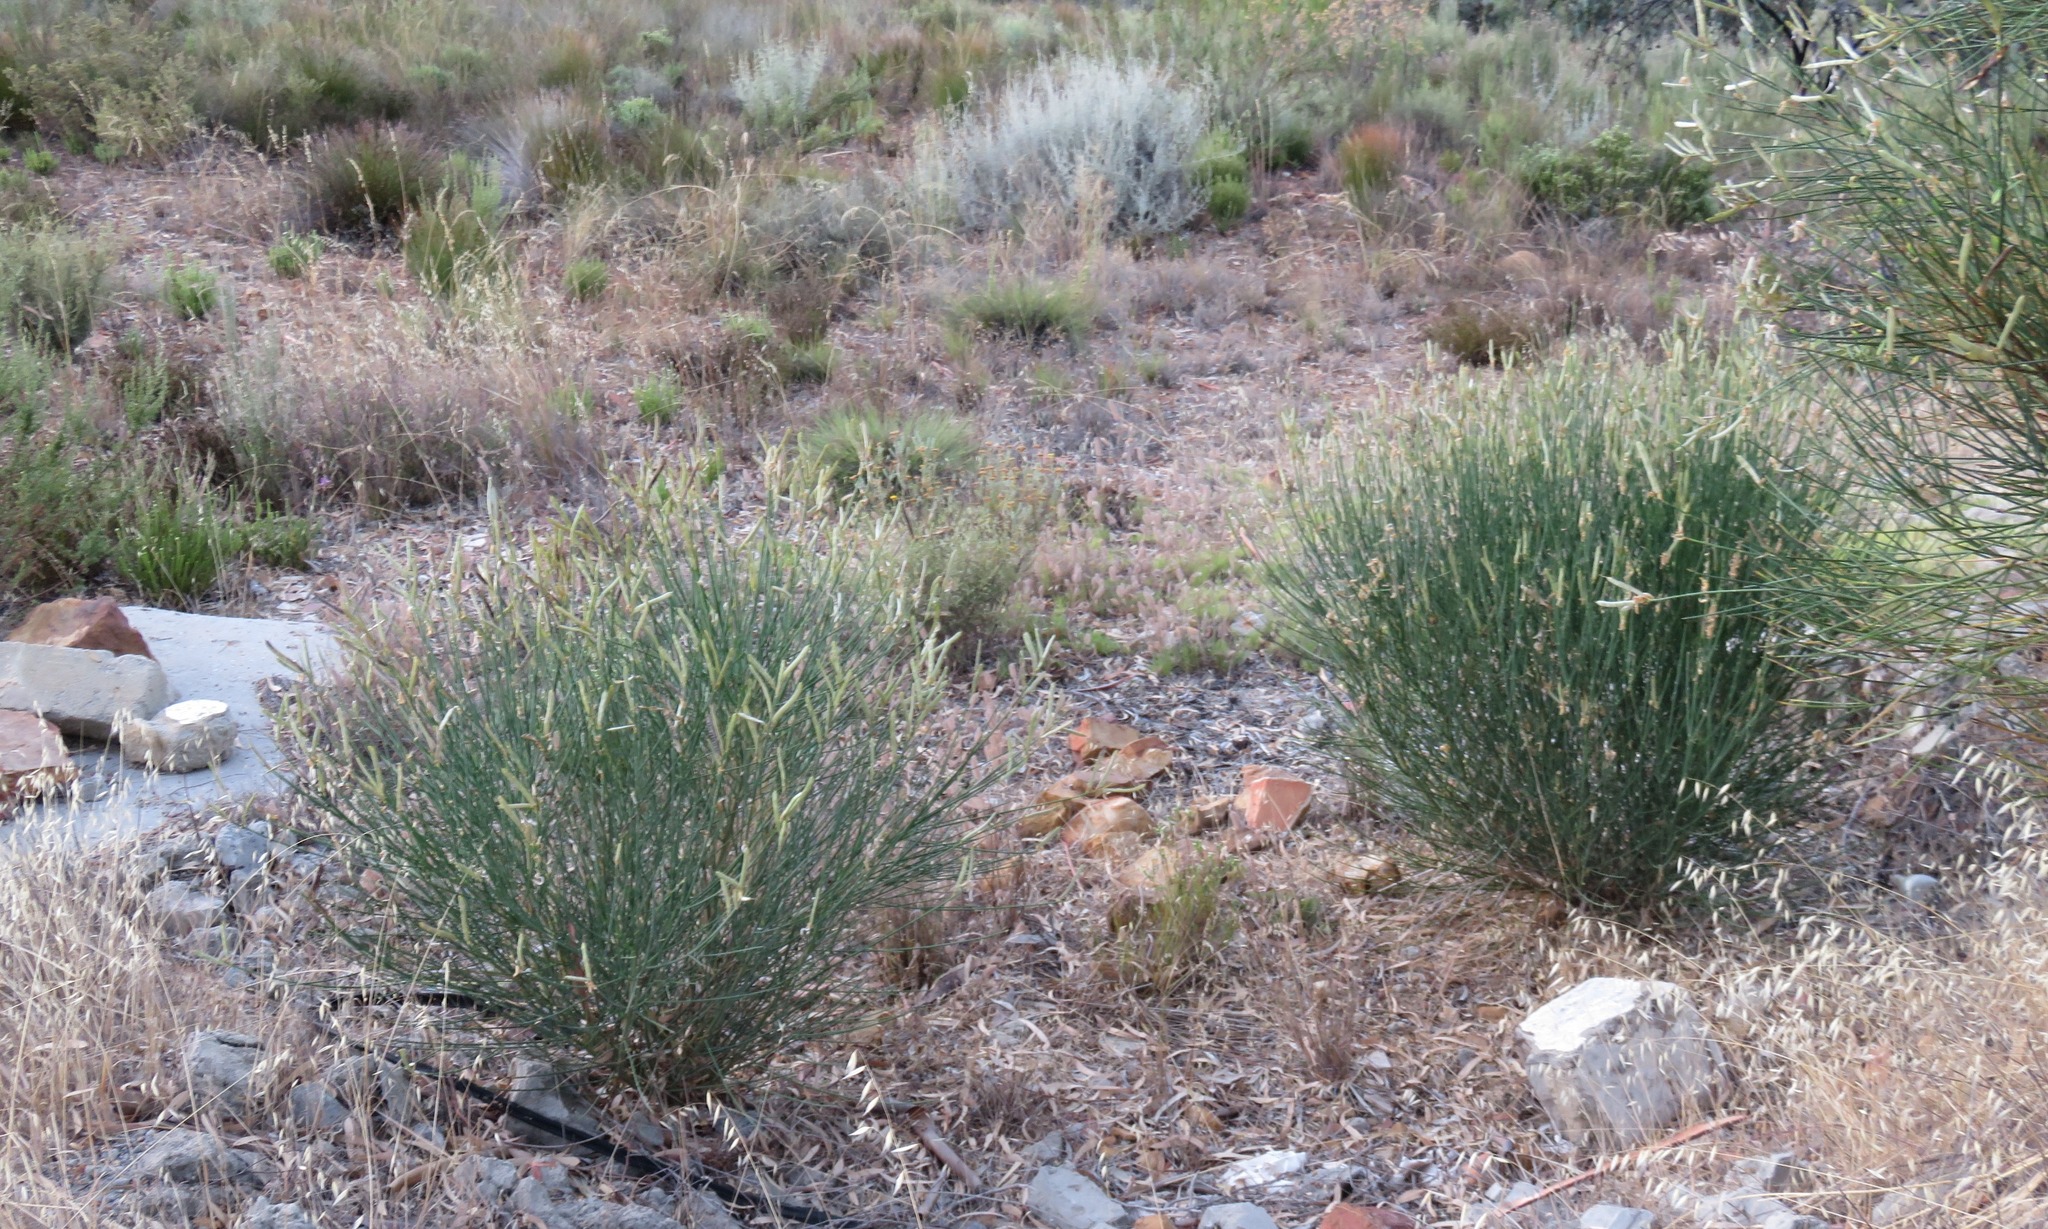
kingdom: Plantae
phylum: Tracheophyta
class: Magnoliopsida
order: Fabales
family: Fabaceae
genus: Spartium
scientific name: Spartium junceum
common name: Spanish broom
